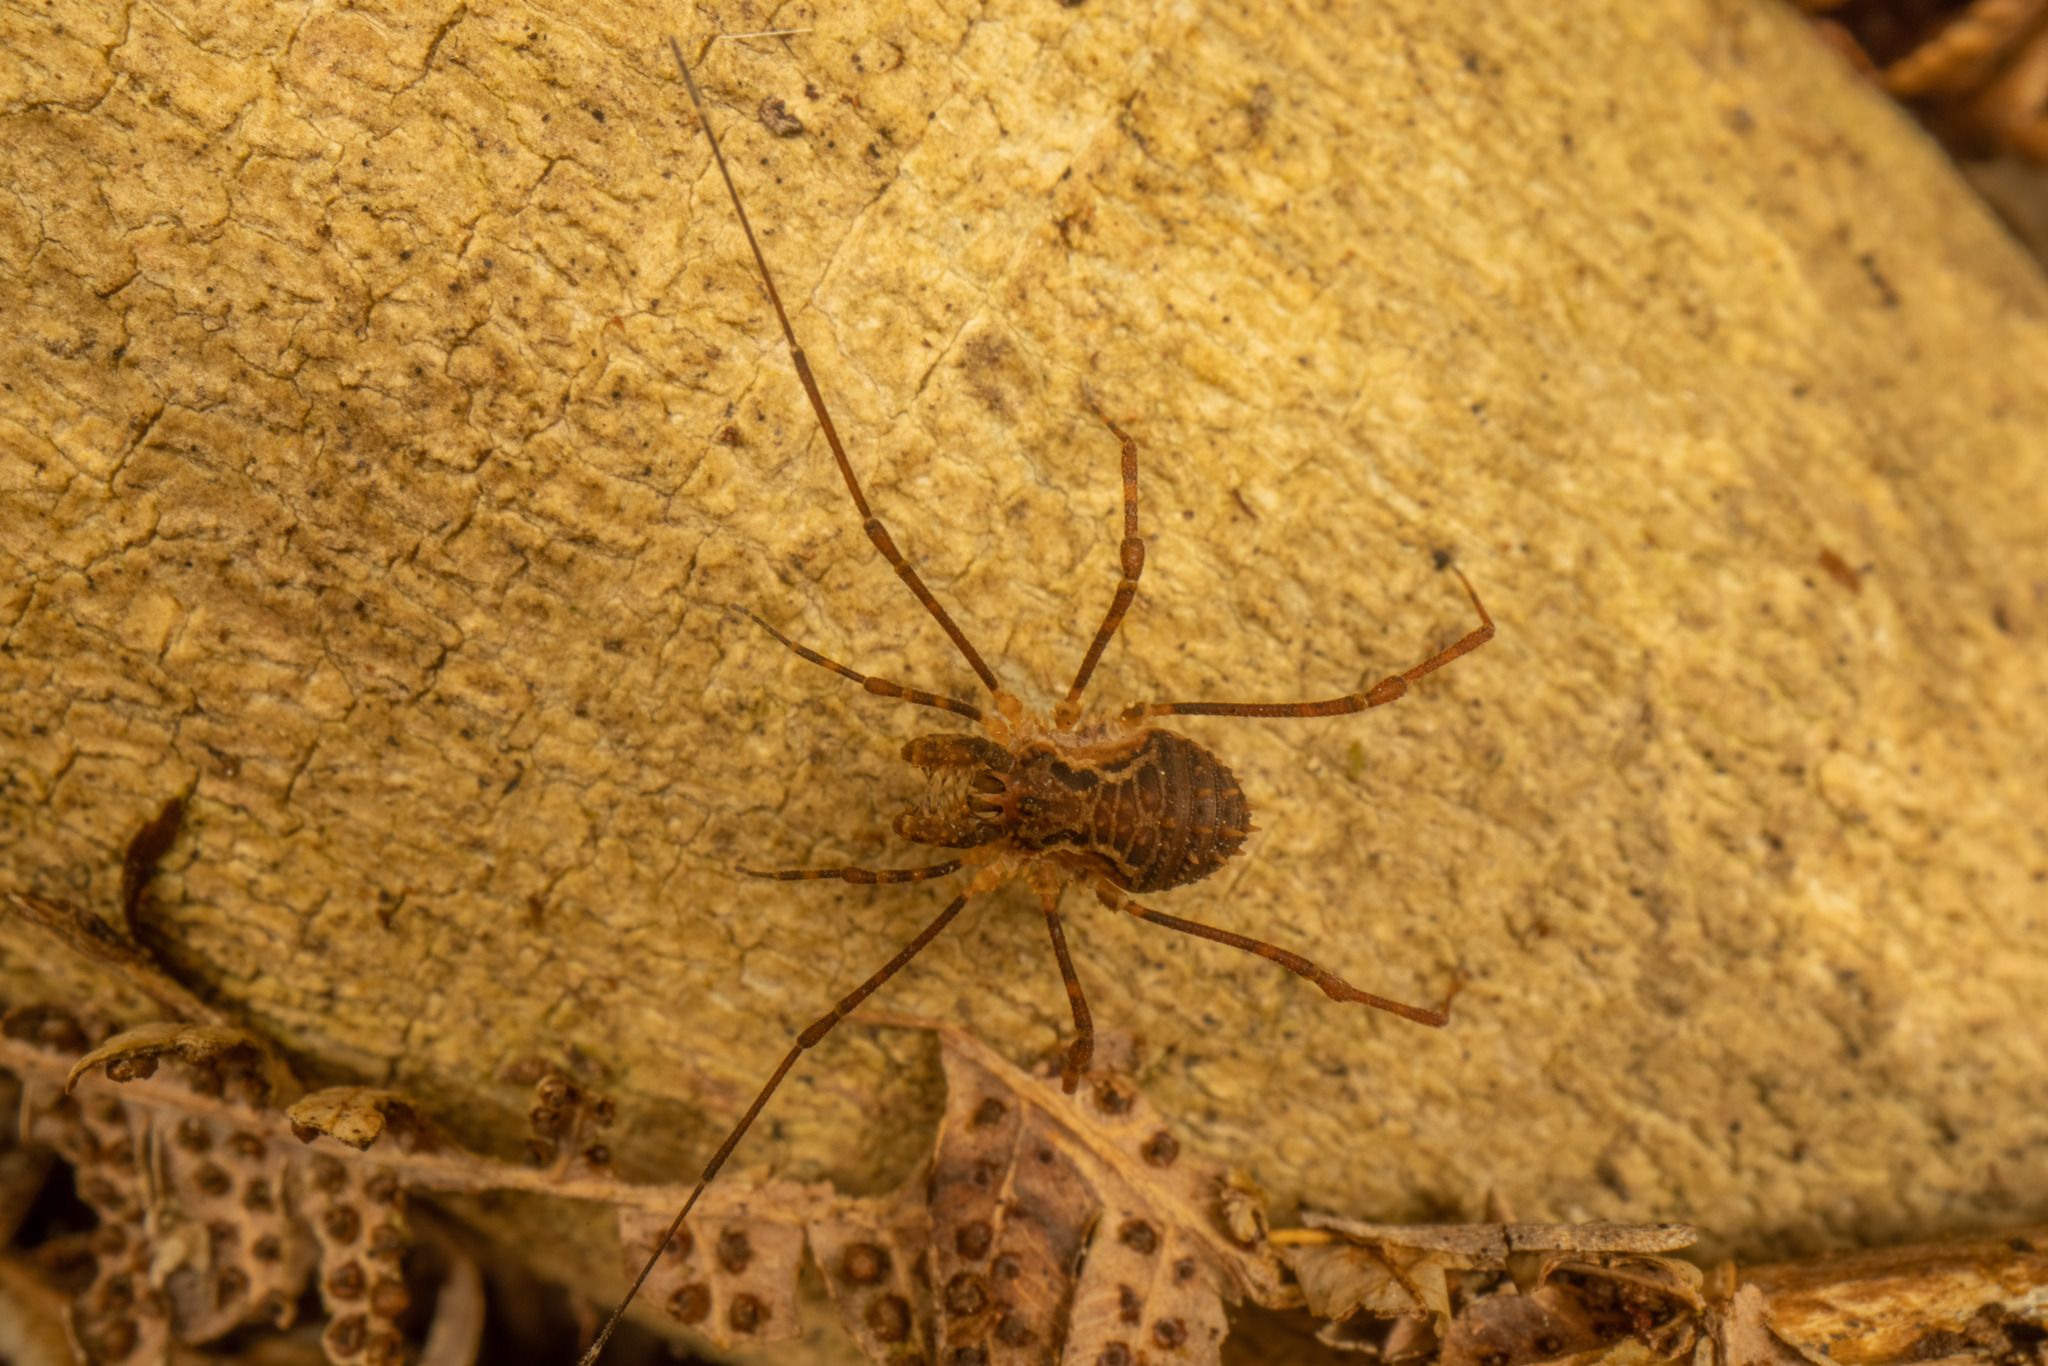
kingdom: Animalia
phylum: Arthropoda
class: Arachnida
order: Opiliones
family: Triaenonychidae
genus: Algidia
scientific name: Algidia chiltoni
